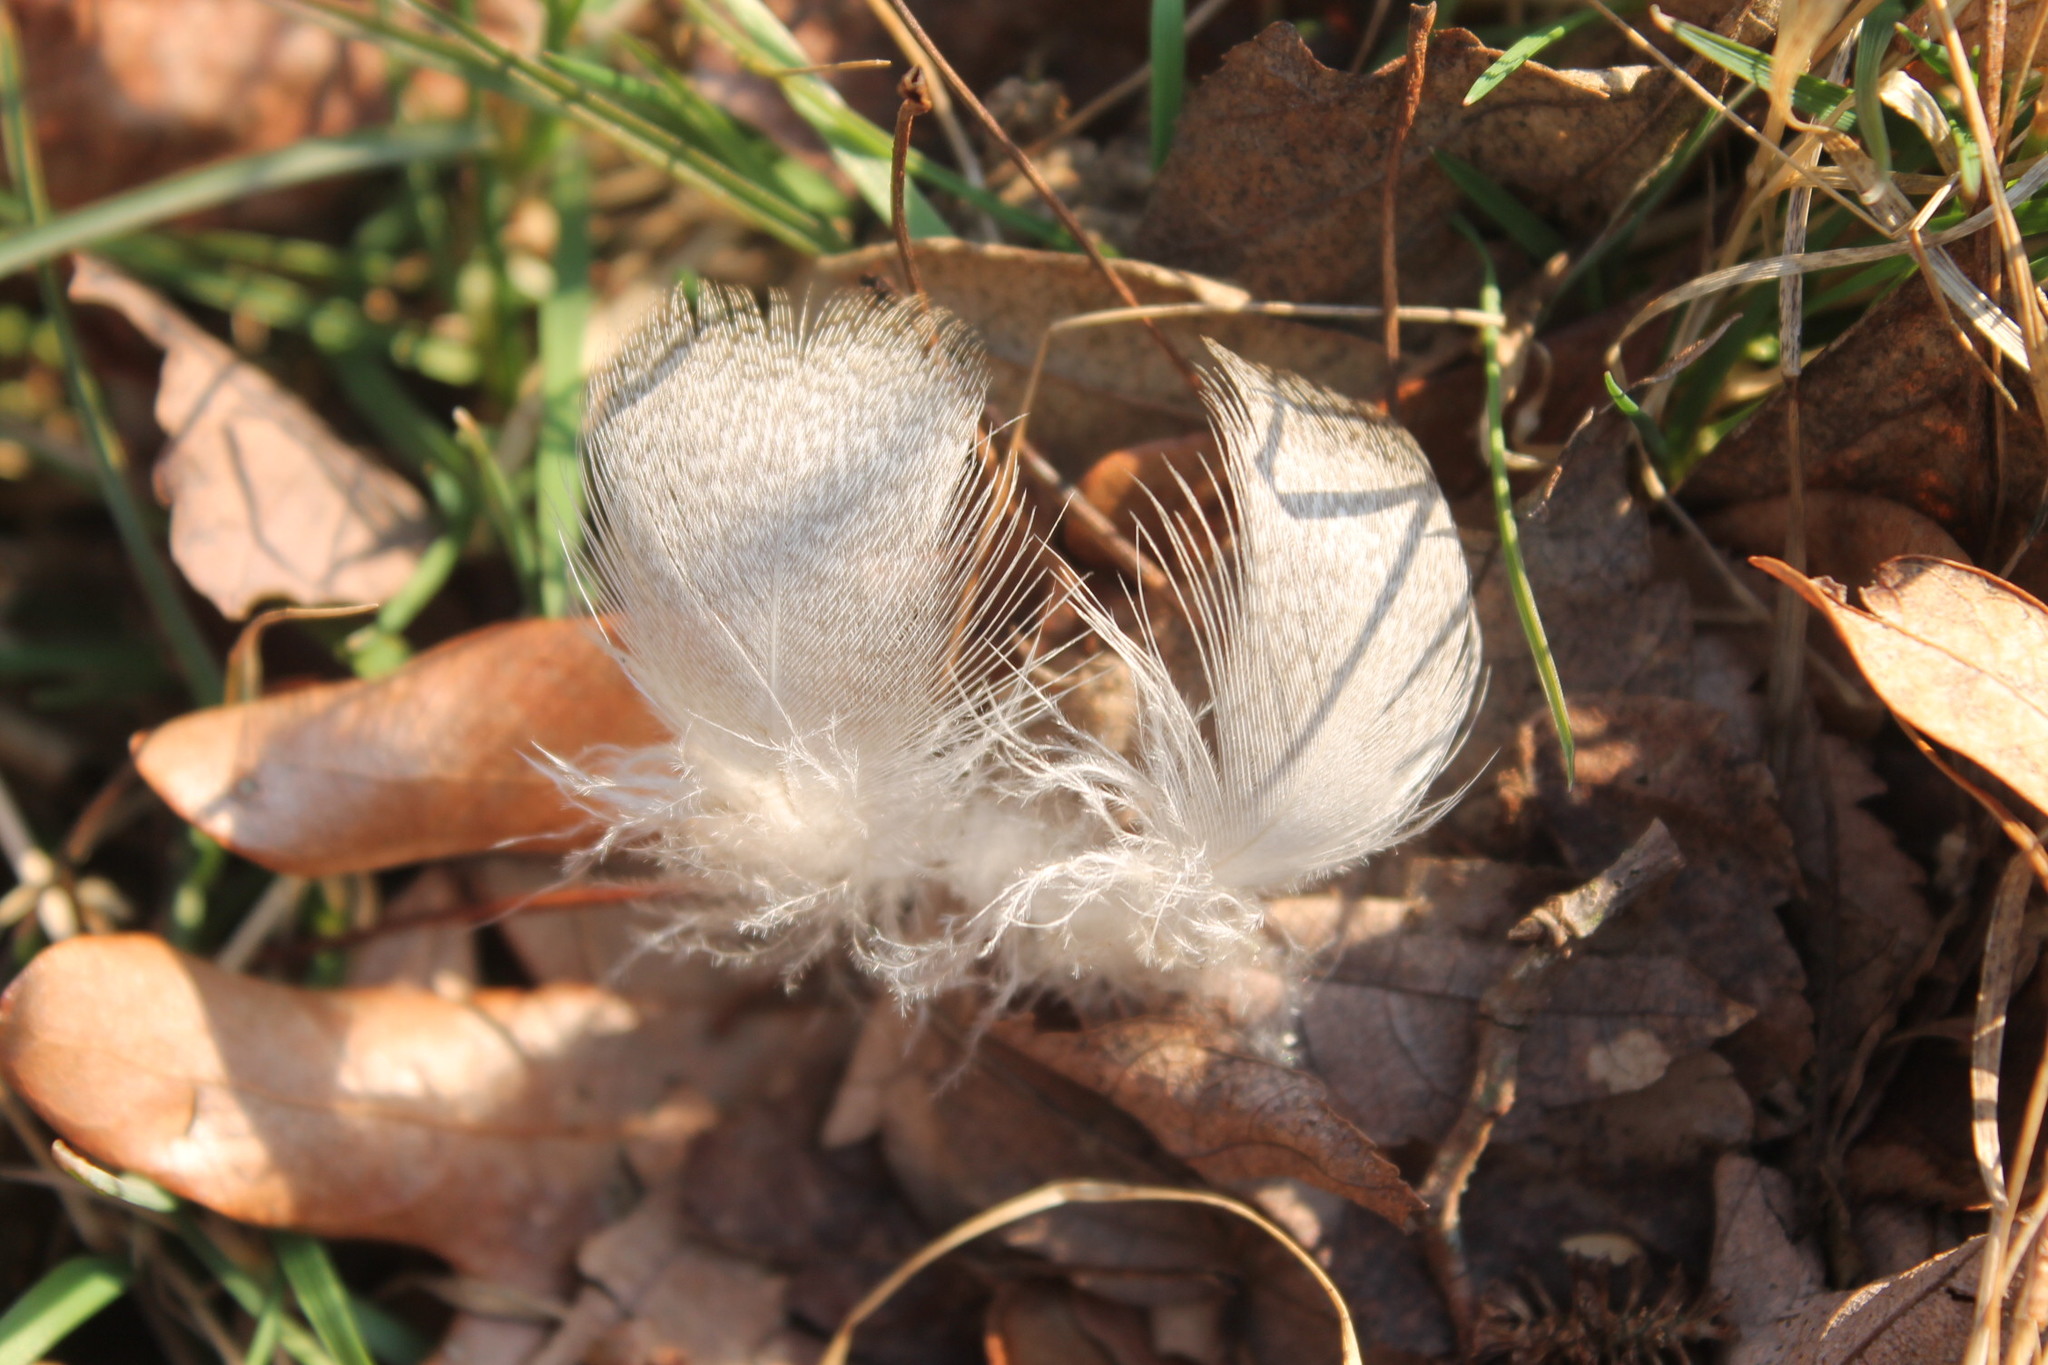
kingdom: Animalia
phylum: Chordata
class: Aves
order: Anseriformes
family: Anatidae
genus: Anas
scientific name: Anas platyrhynchos
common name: Mallard
